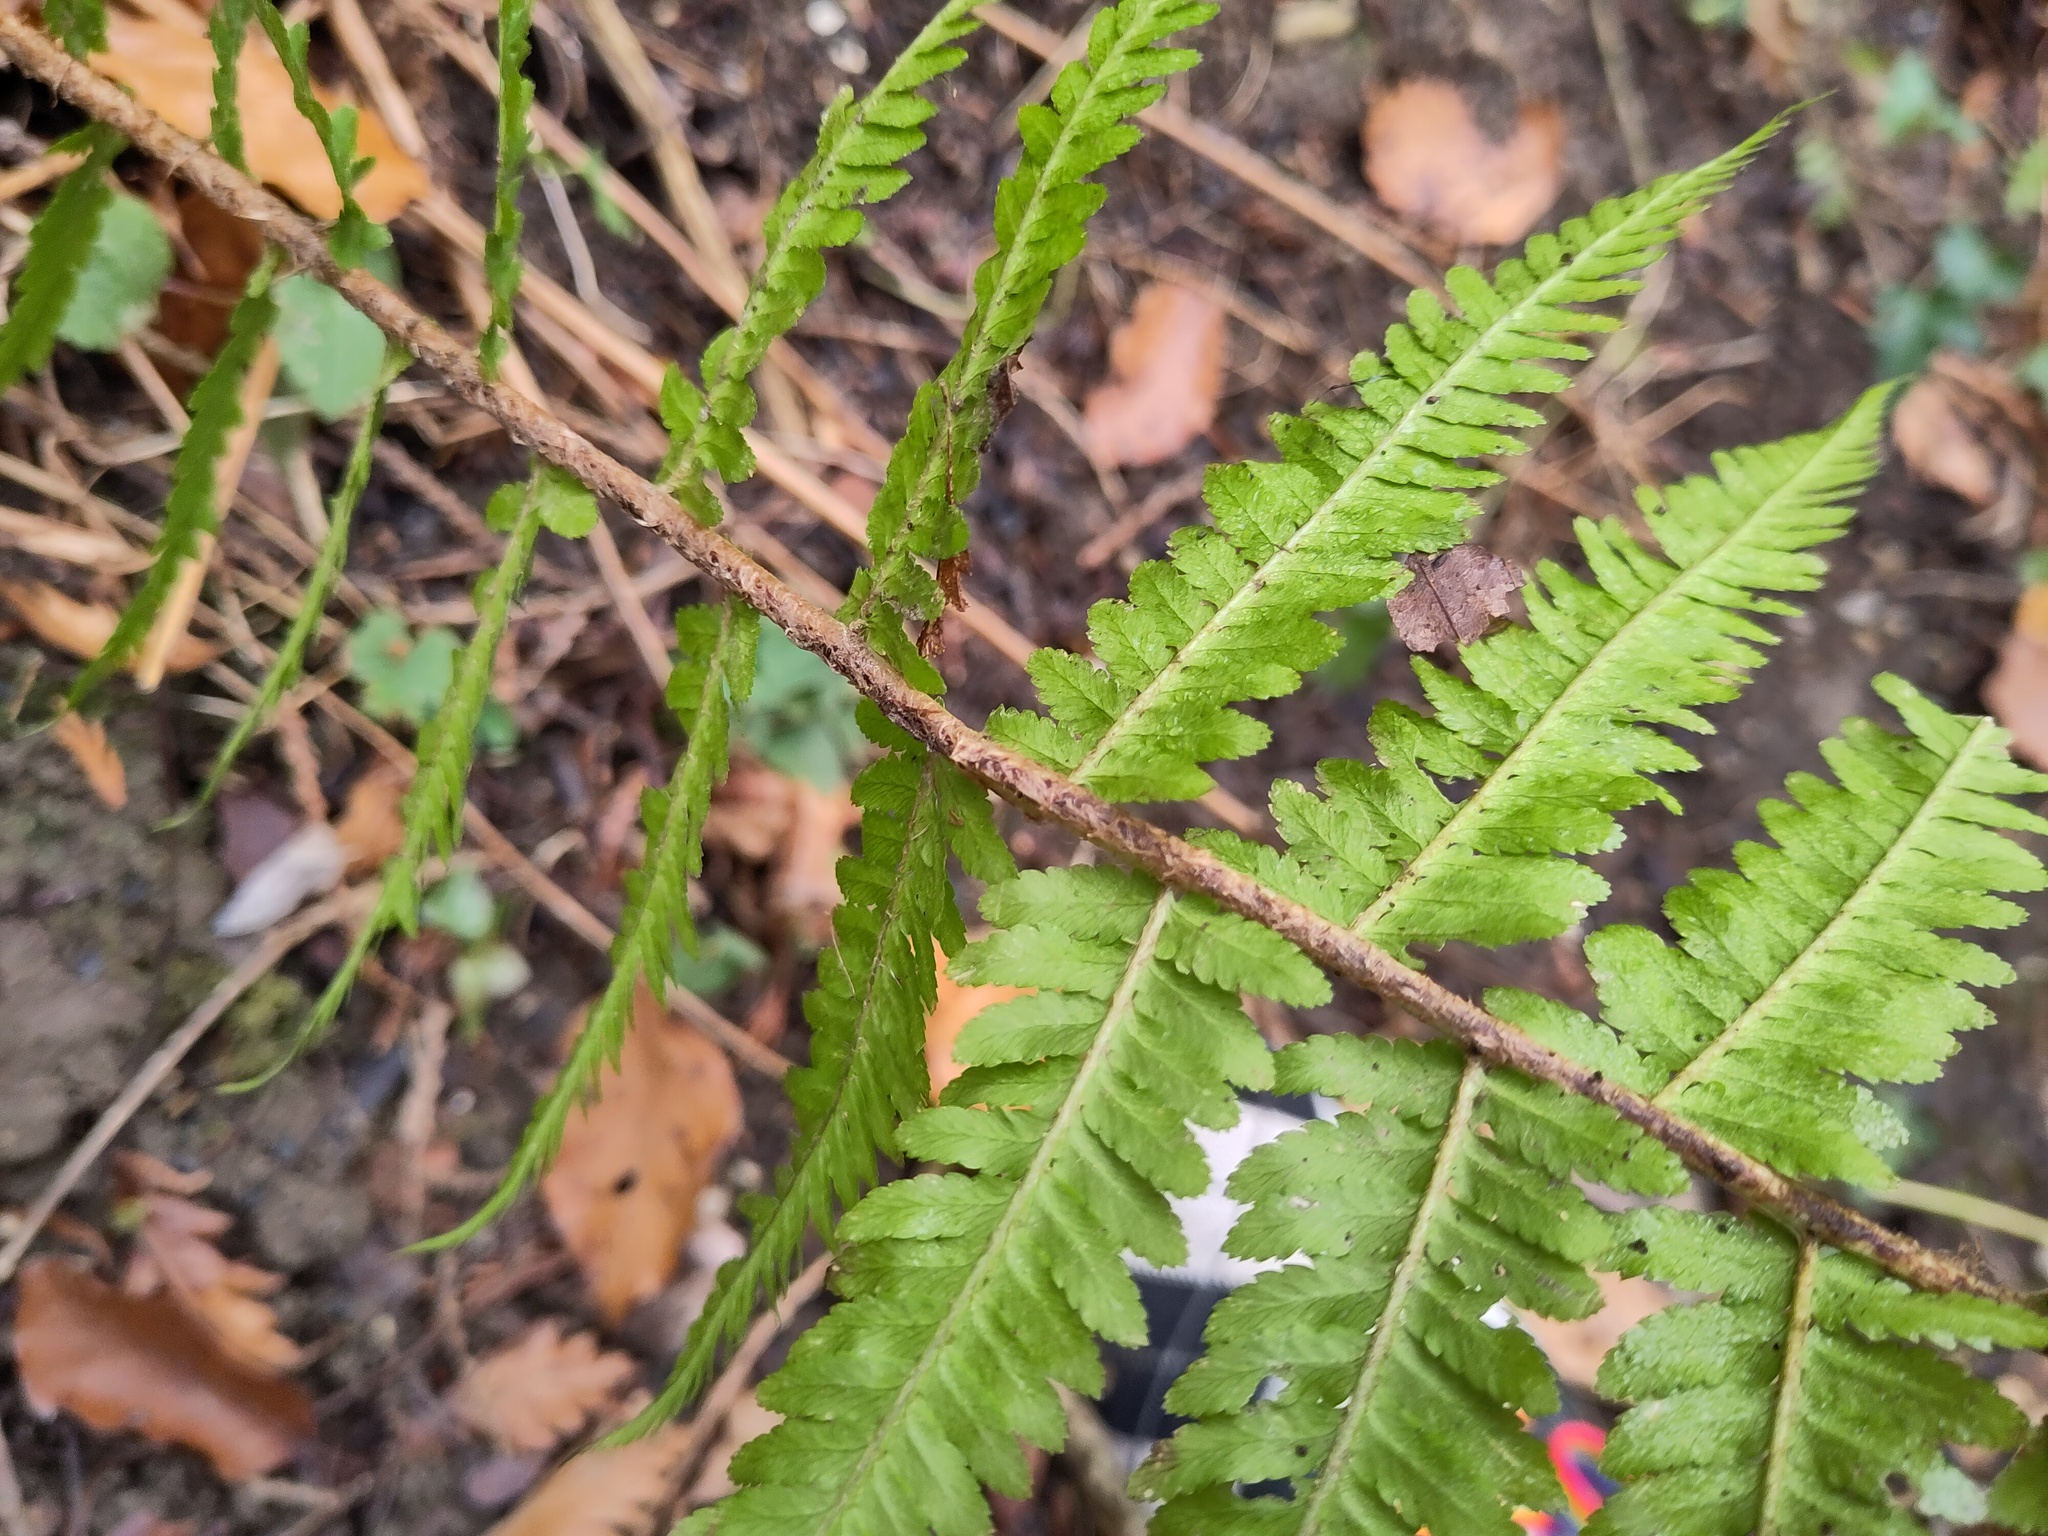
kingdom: Plantae
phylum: Tracheophyta
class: Polypodiopsida
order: Polypodiales
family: Dryopteridaceae
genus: Dryopteris
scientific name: Dryopteris filix-mas
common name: Male fern
